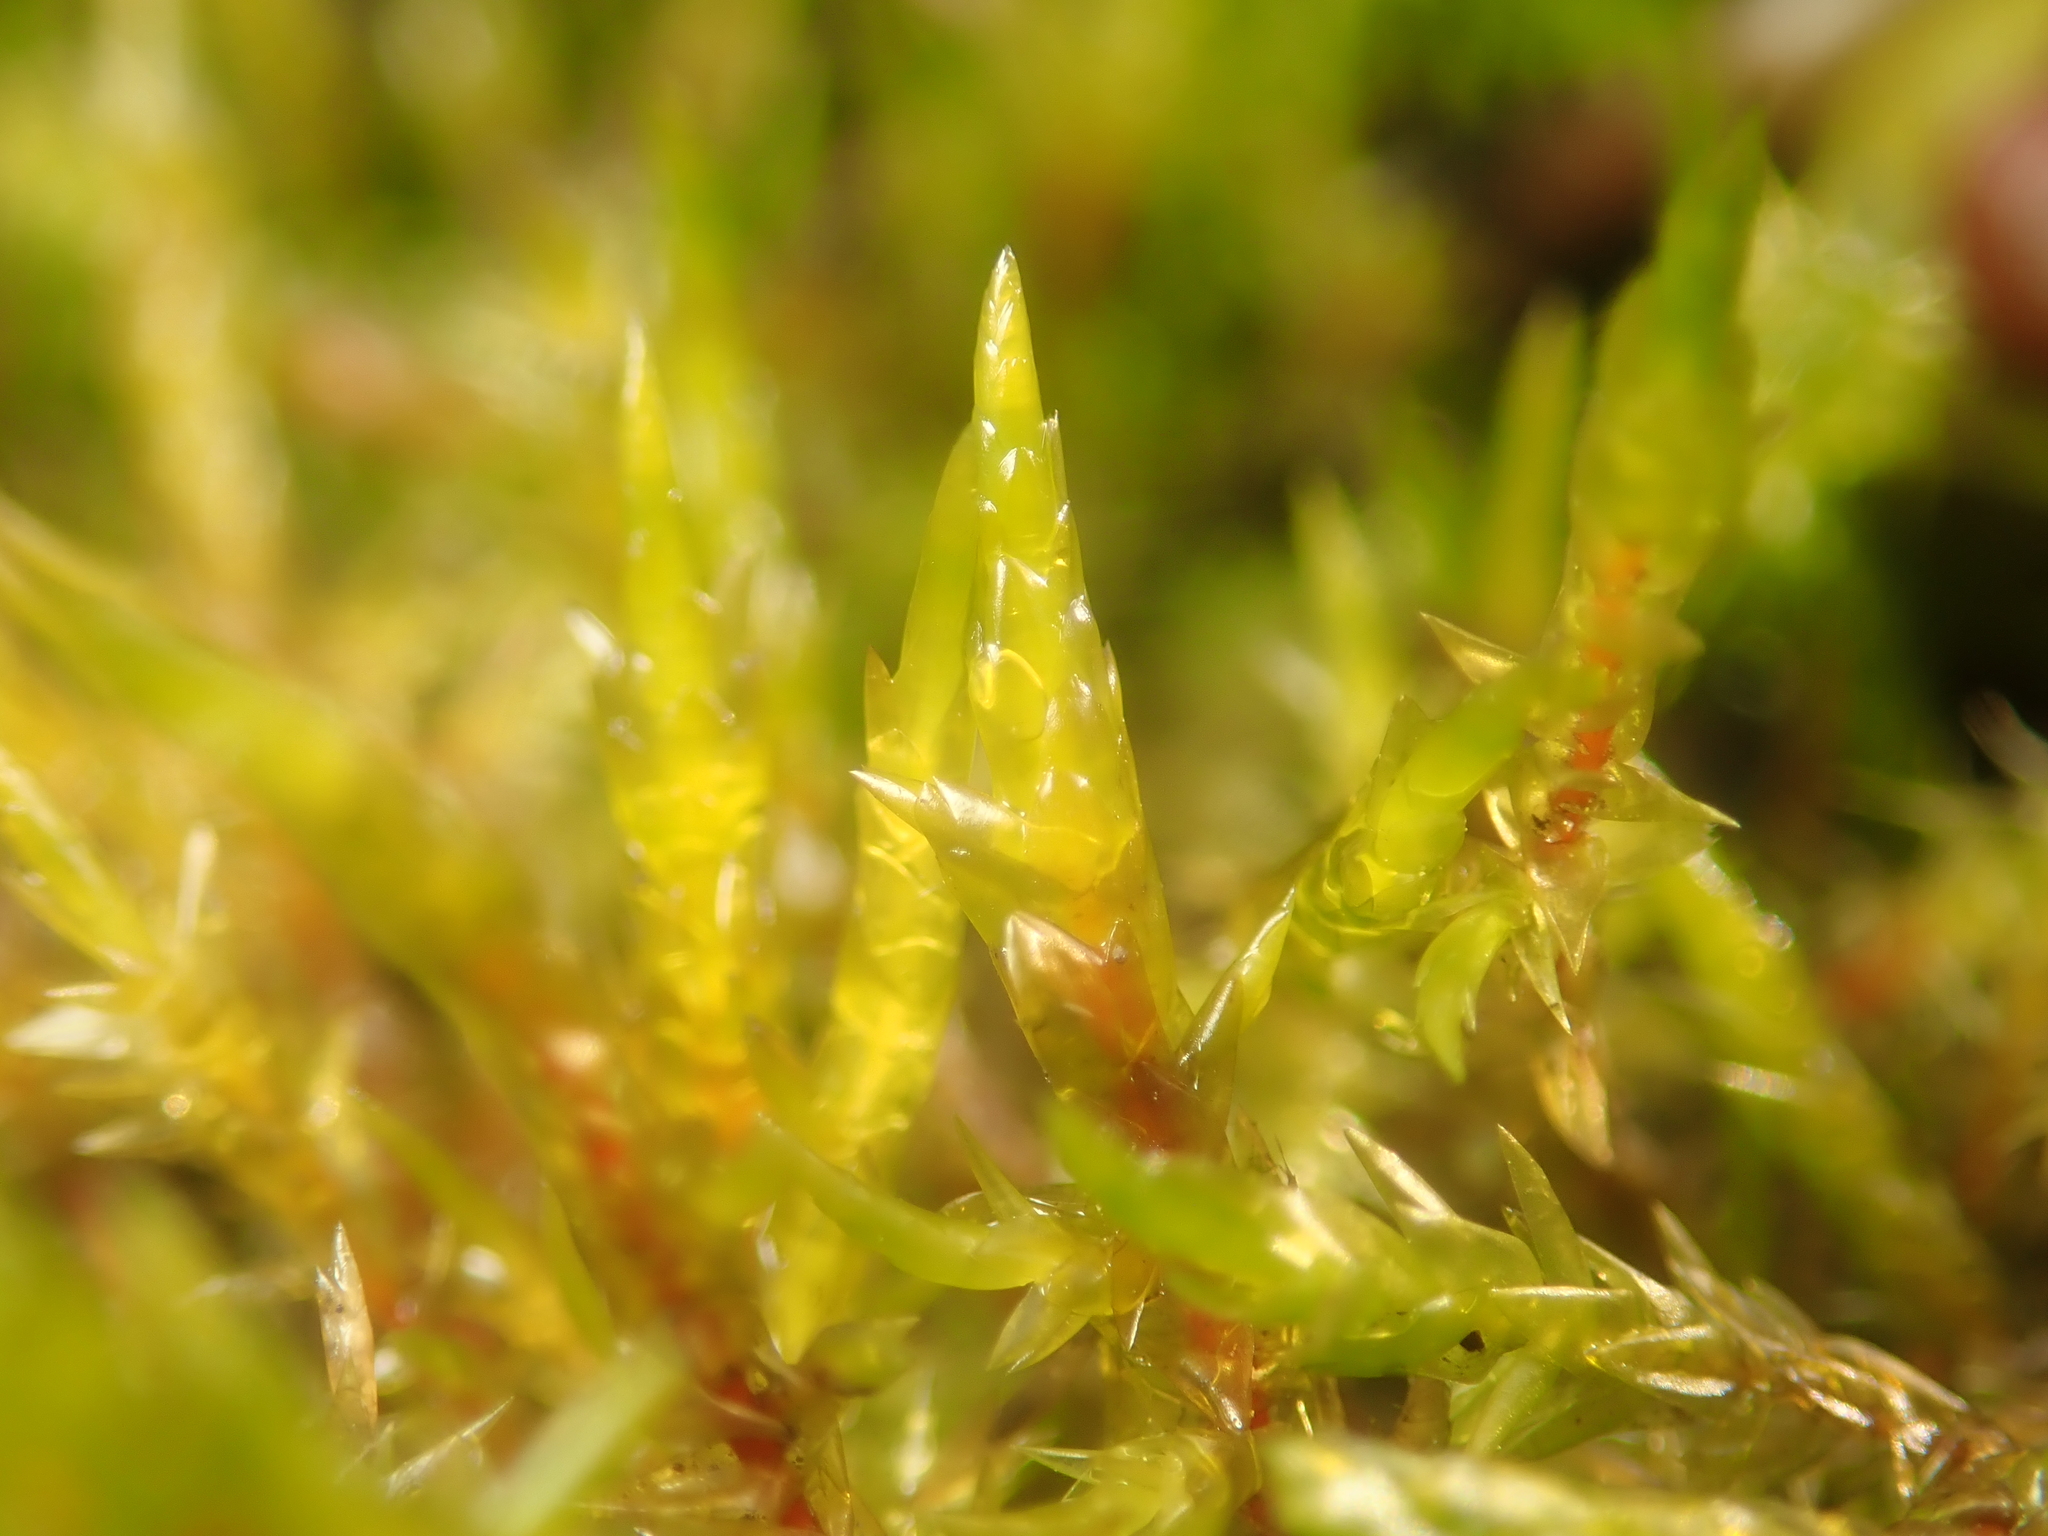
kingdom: Plantae
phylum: Bryophyta
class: Bryopsida
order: Hypnales
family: Pylaisiaceae
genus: Calliergonella
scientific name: Calliergonella cuspidata
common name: Common large wetland moss
